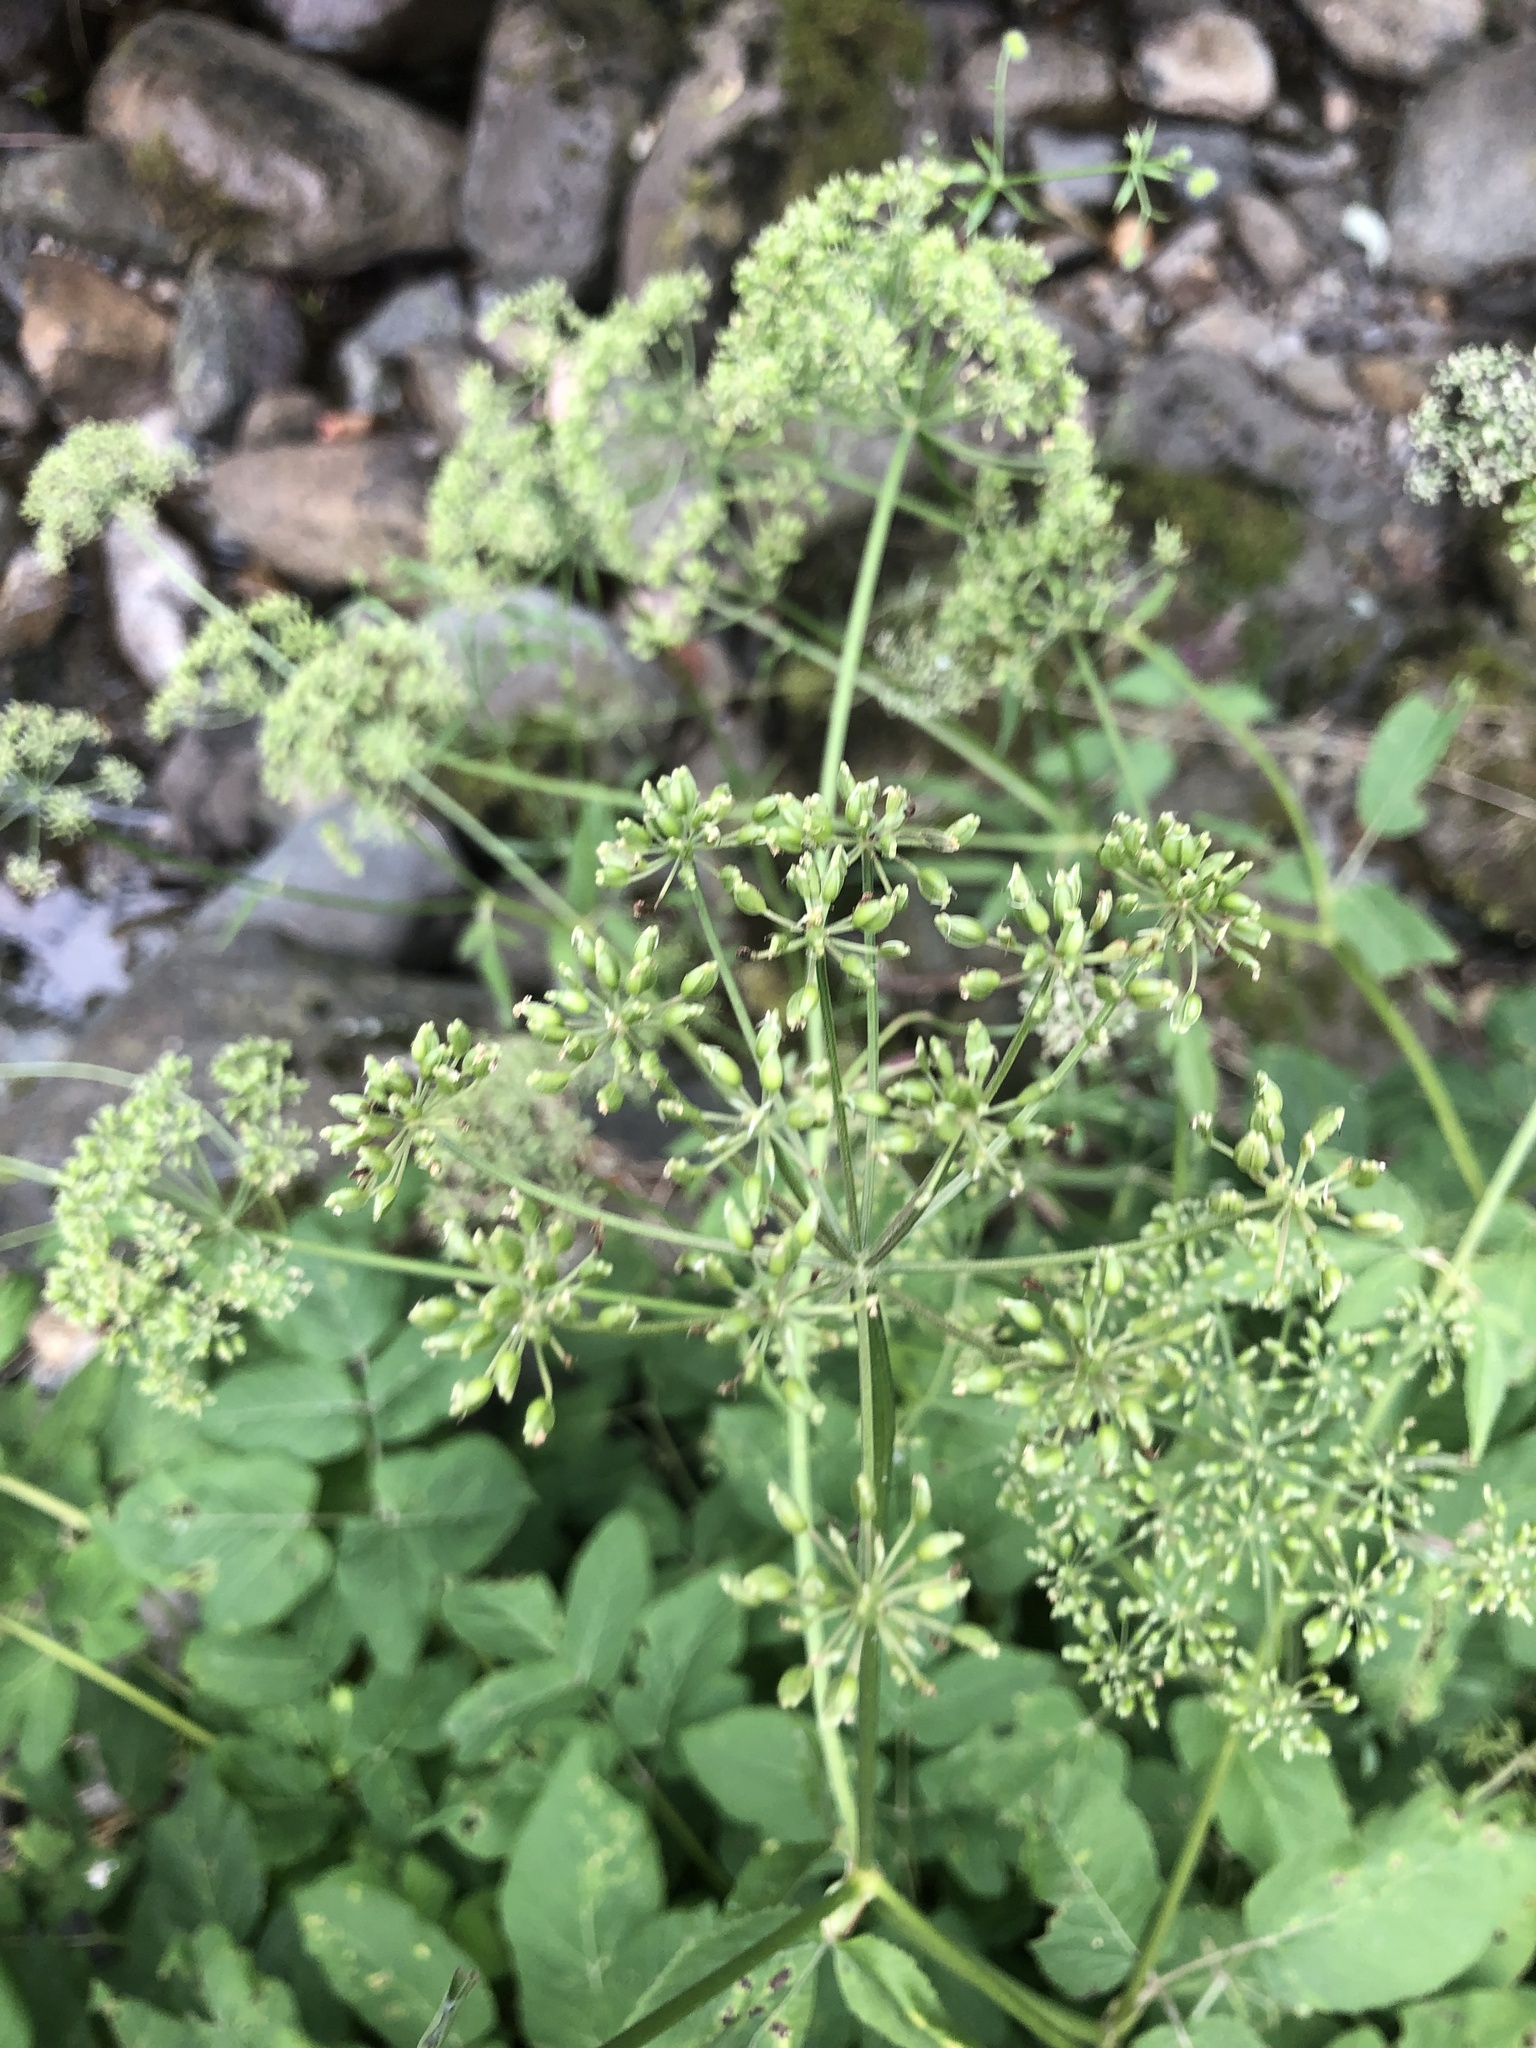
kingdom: Plantae
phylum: Tracheophyta
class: Magnoliopsida
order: Apiales
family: Apiaceae
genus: Aegopodium
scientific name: Aegopodium podagraria
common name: Ground-elder
